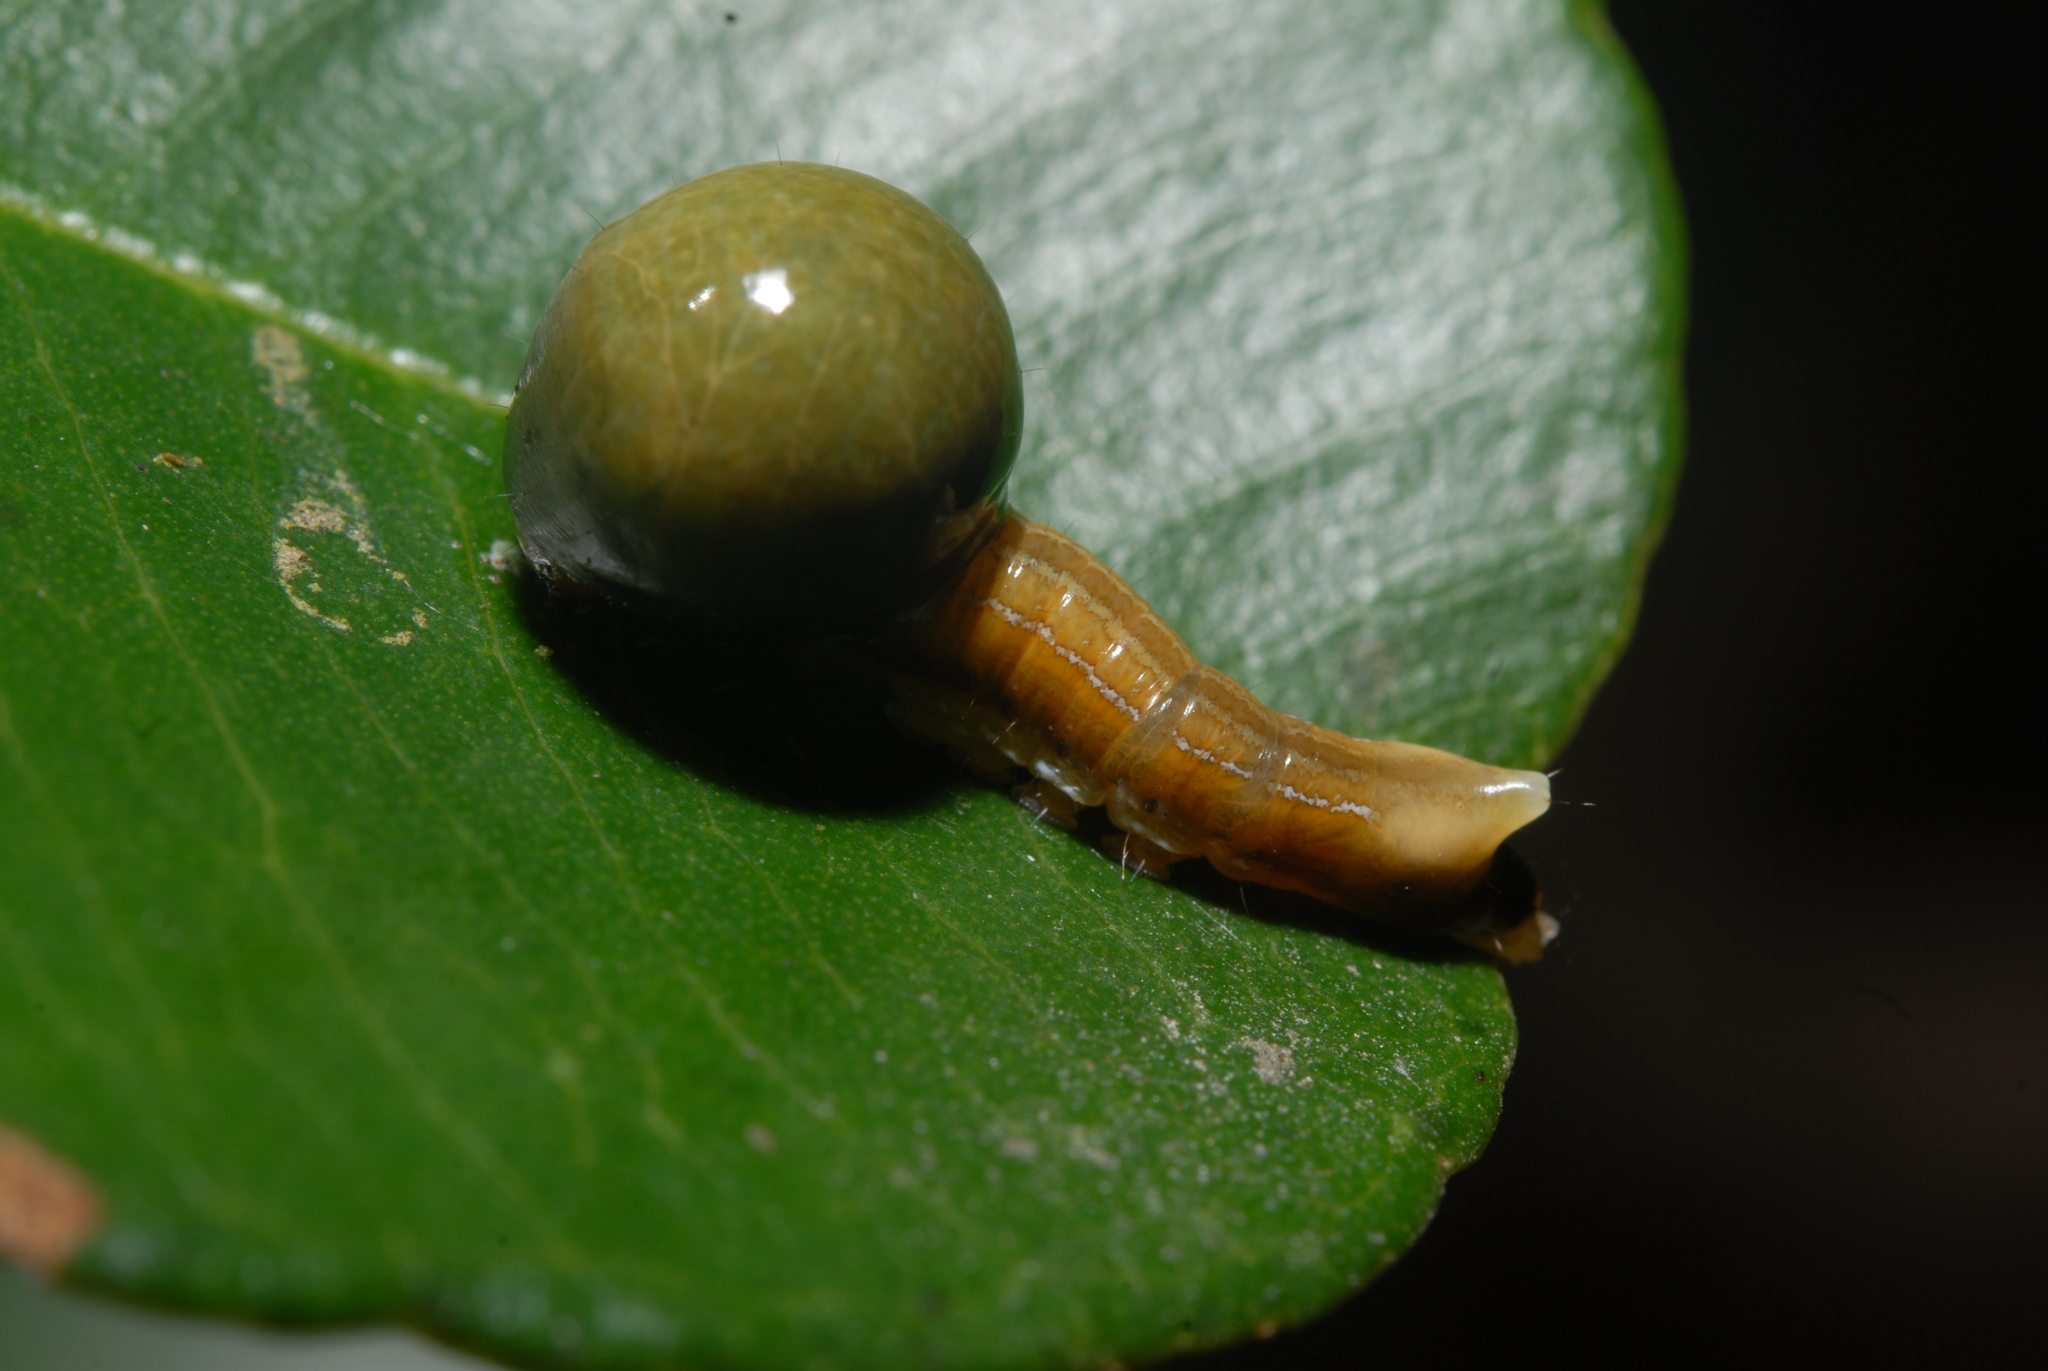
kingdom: Animalia
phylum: Arthropoda
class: Insecta
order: Lepidoptera
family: Nolidae
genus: Carea
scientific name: Carea varipes
